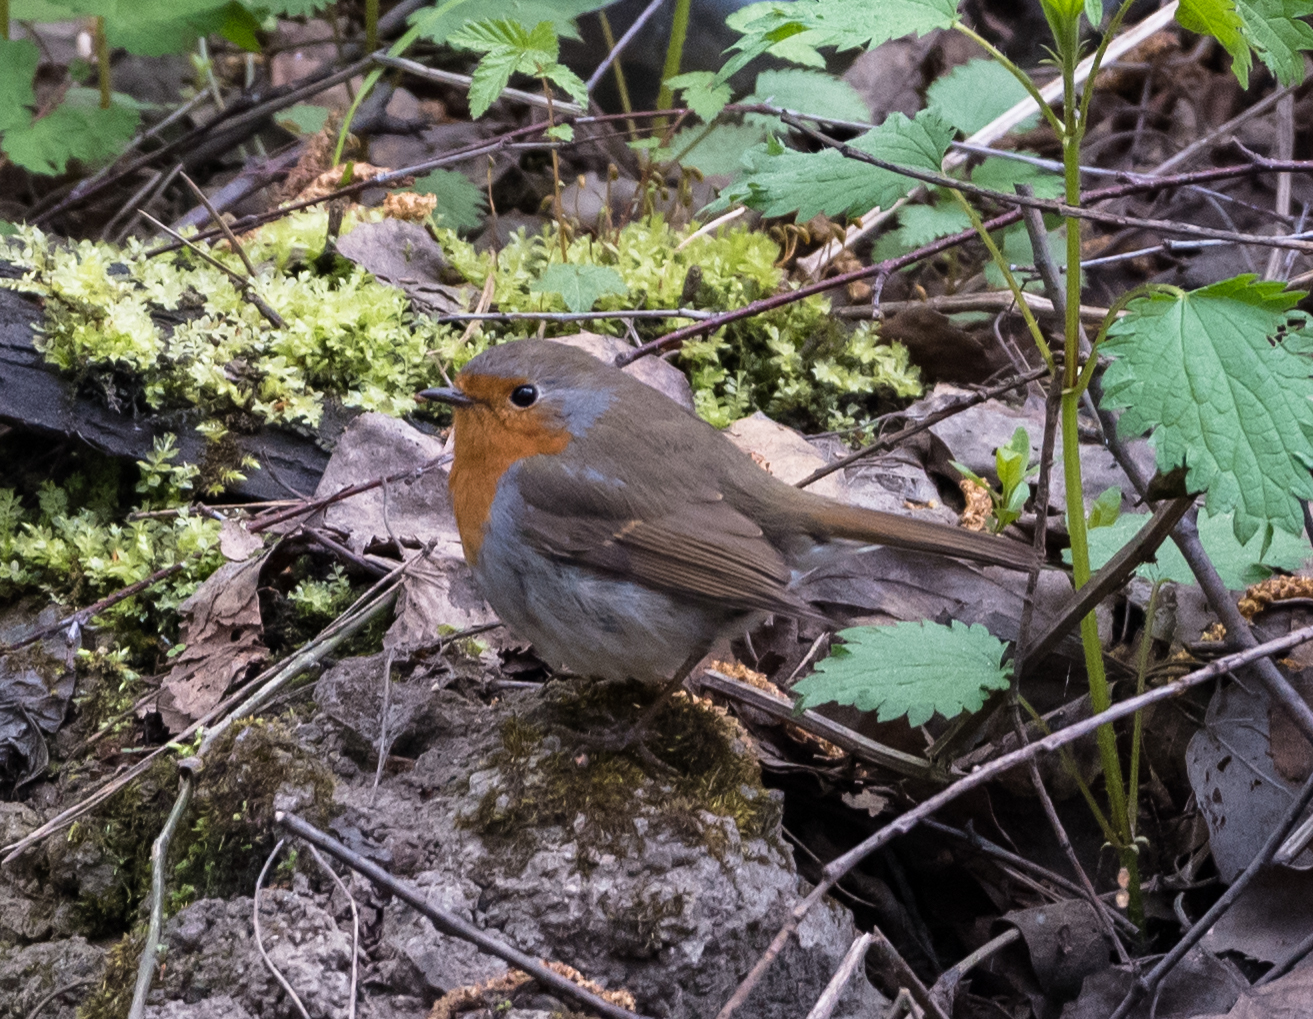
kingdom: Animalia
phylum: Chordata
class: Aves
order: Passeriformes
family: Muscicapidae
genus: Erithacus
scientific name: Erithacus rubecula
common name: European robin
